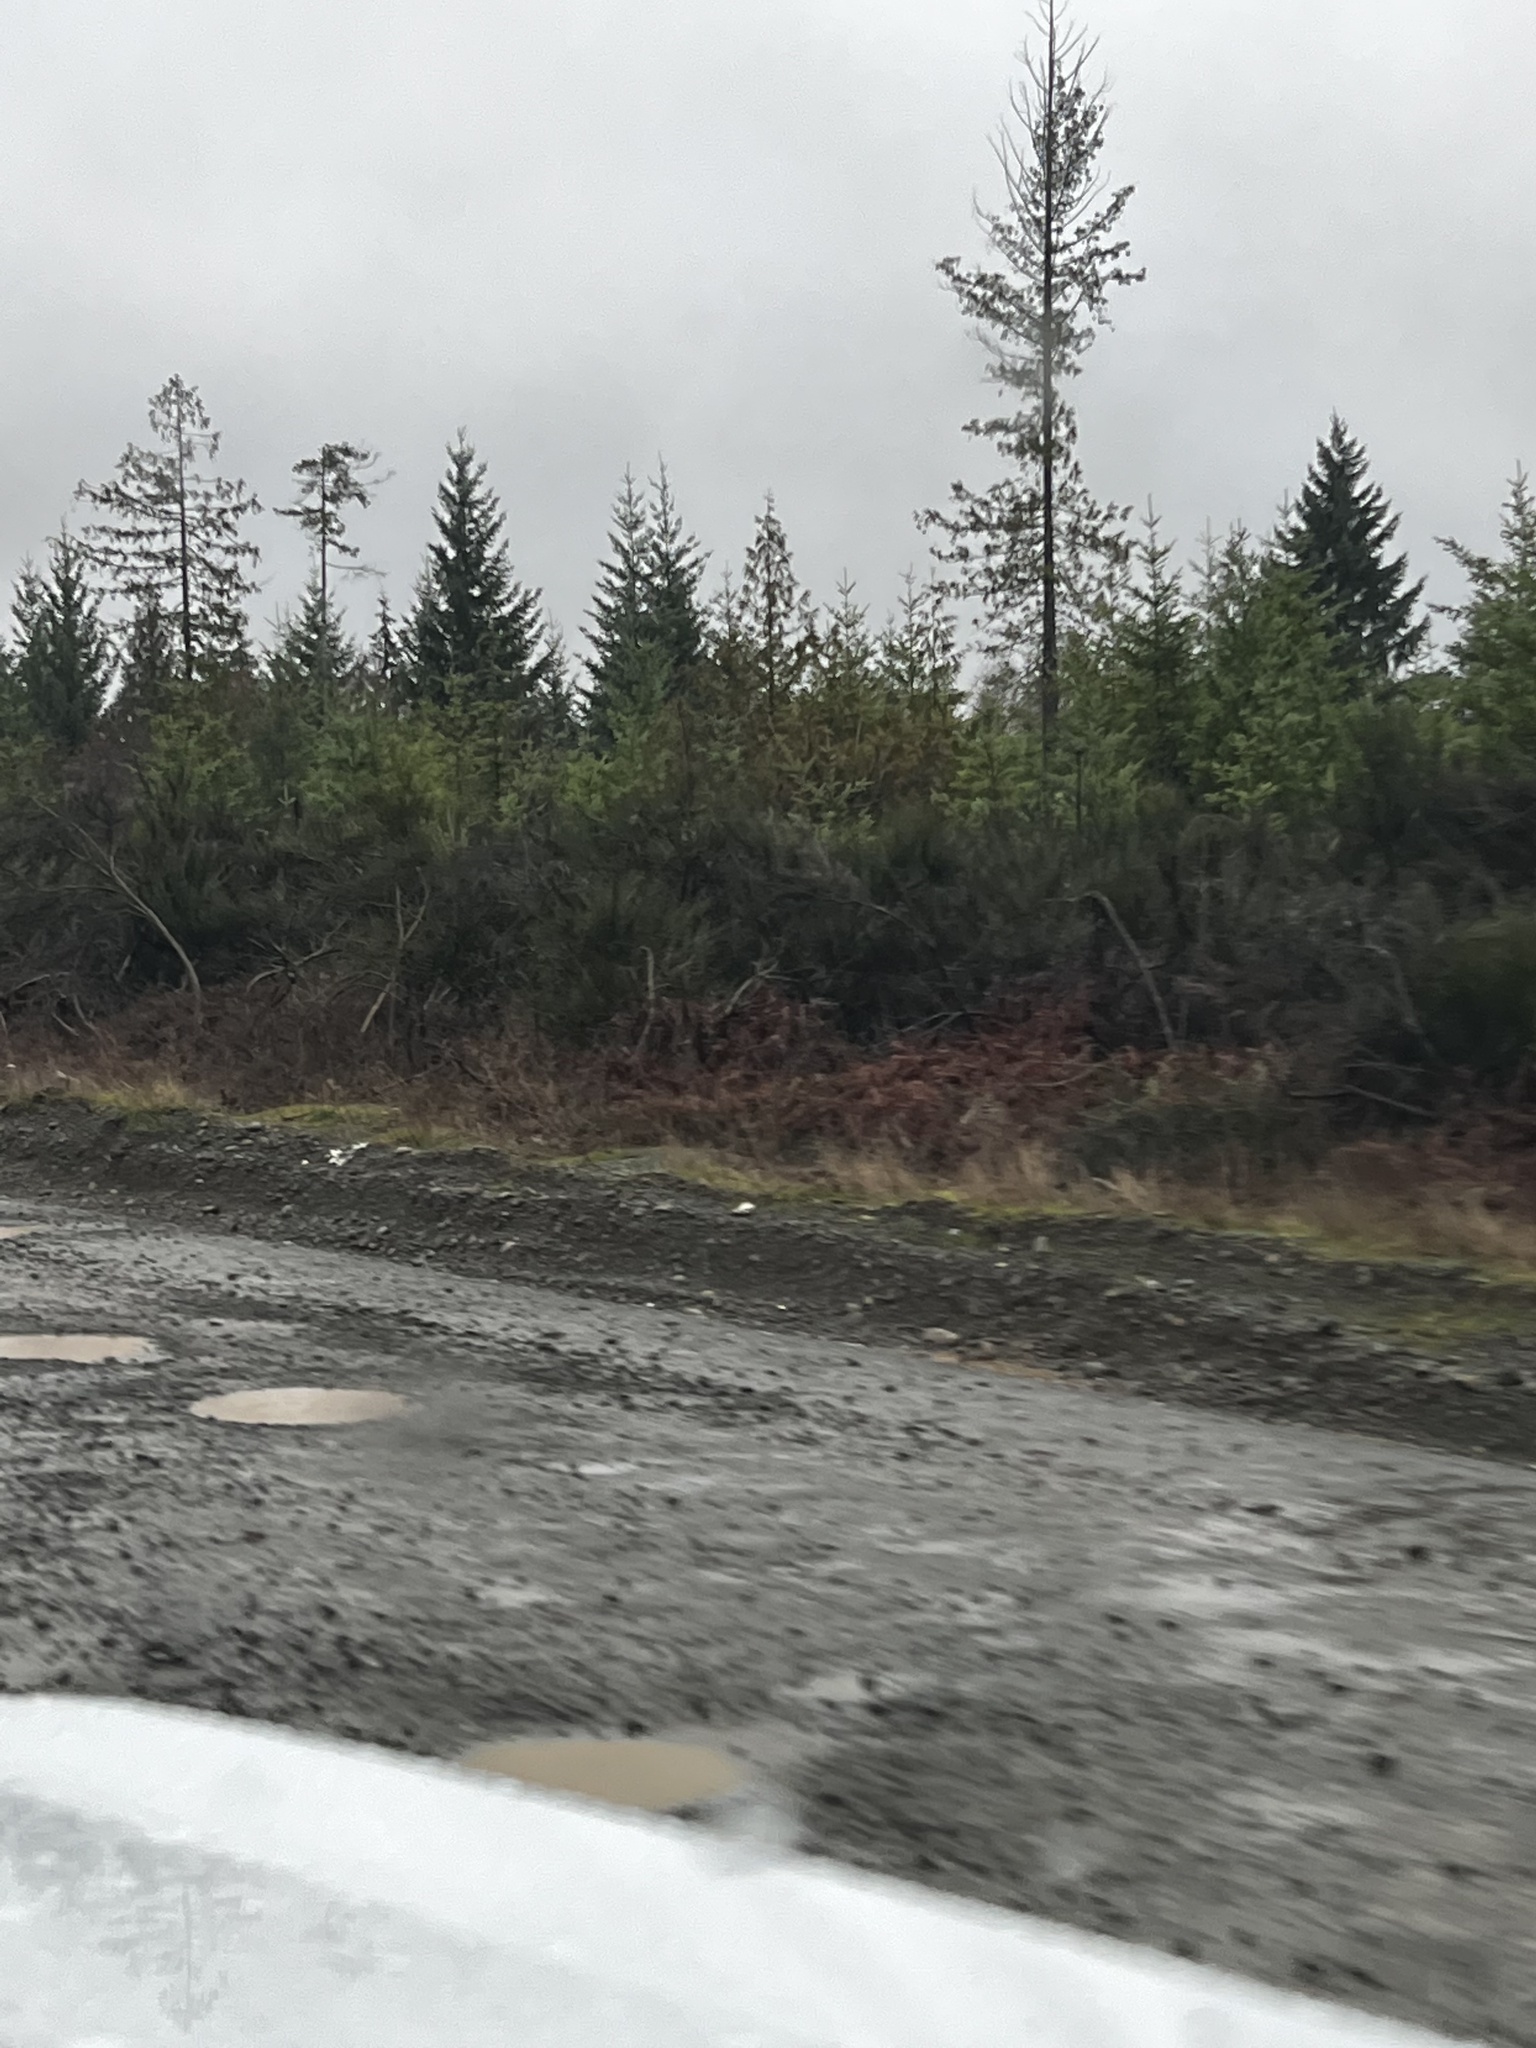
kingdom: Plantae
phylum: Tracheophyta
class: Magnoliopsida
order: Fabales
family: Fabaceae
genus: Cytisus
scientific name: Cytisus scoparius
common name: Scotch broom
